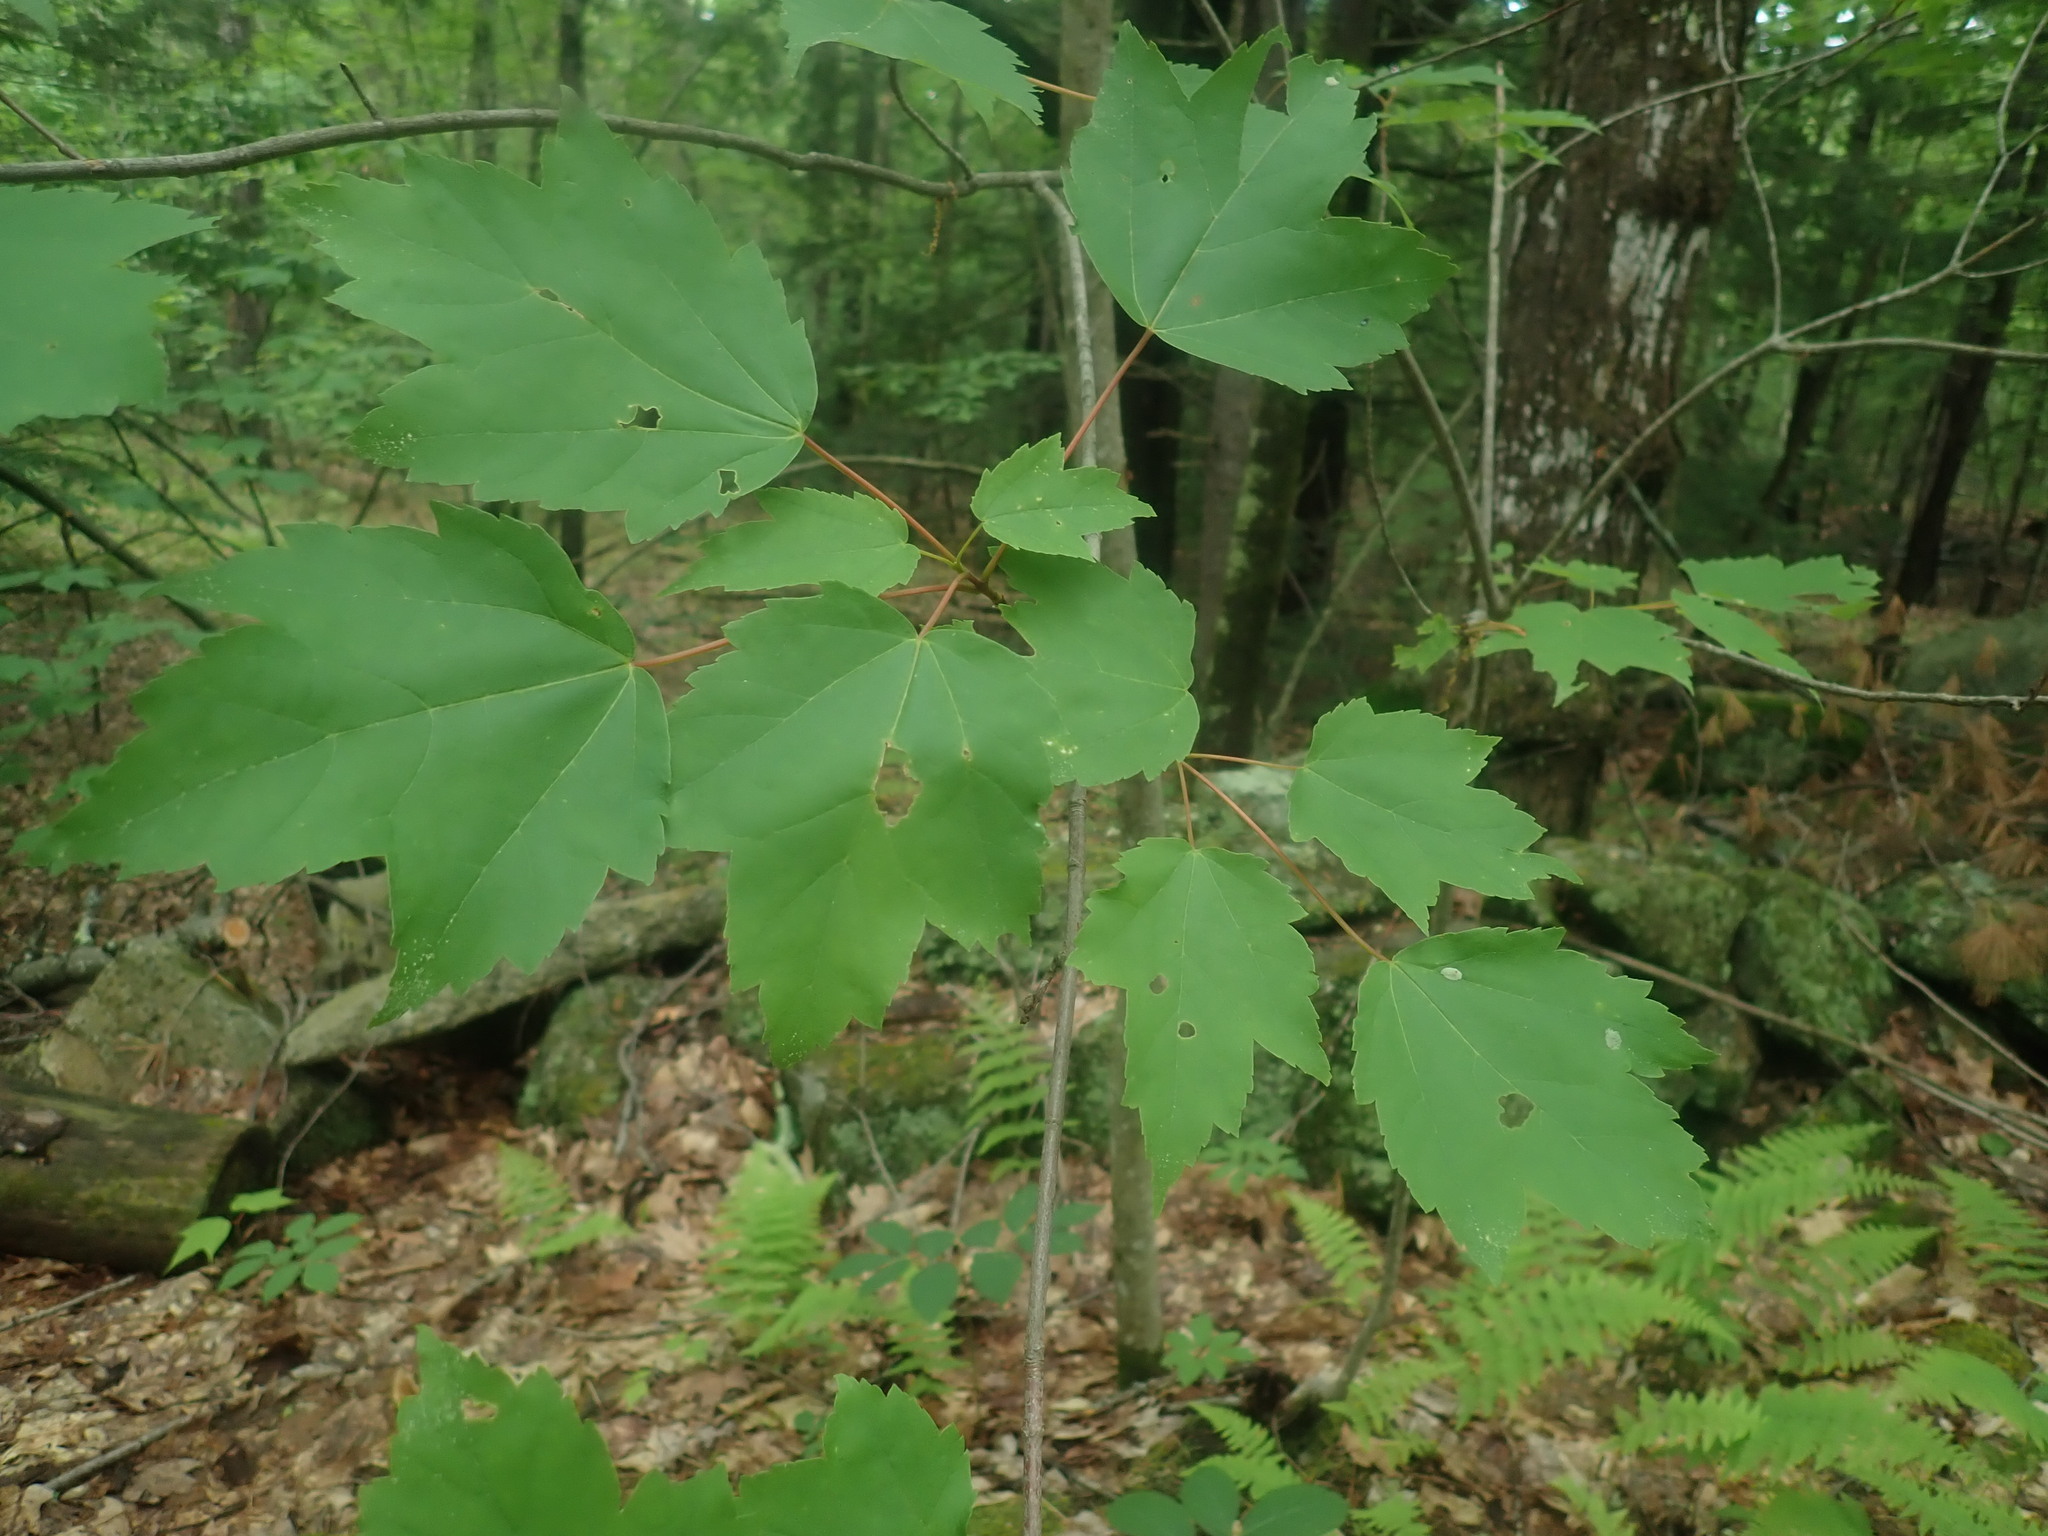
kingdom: Plantae
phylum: Tracheophyta
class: Magnoliopsida
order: Sapindales
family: Sapindaceae
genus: Acer
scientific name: Acer rubrum
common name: Red maple
